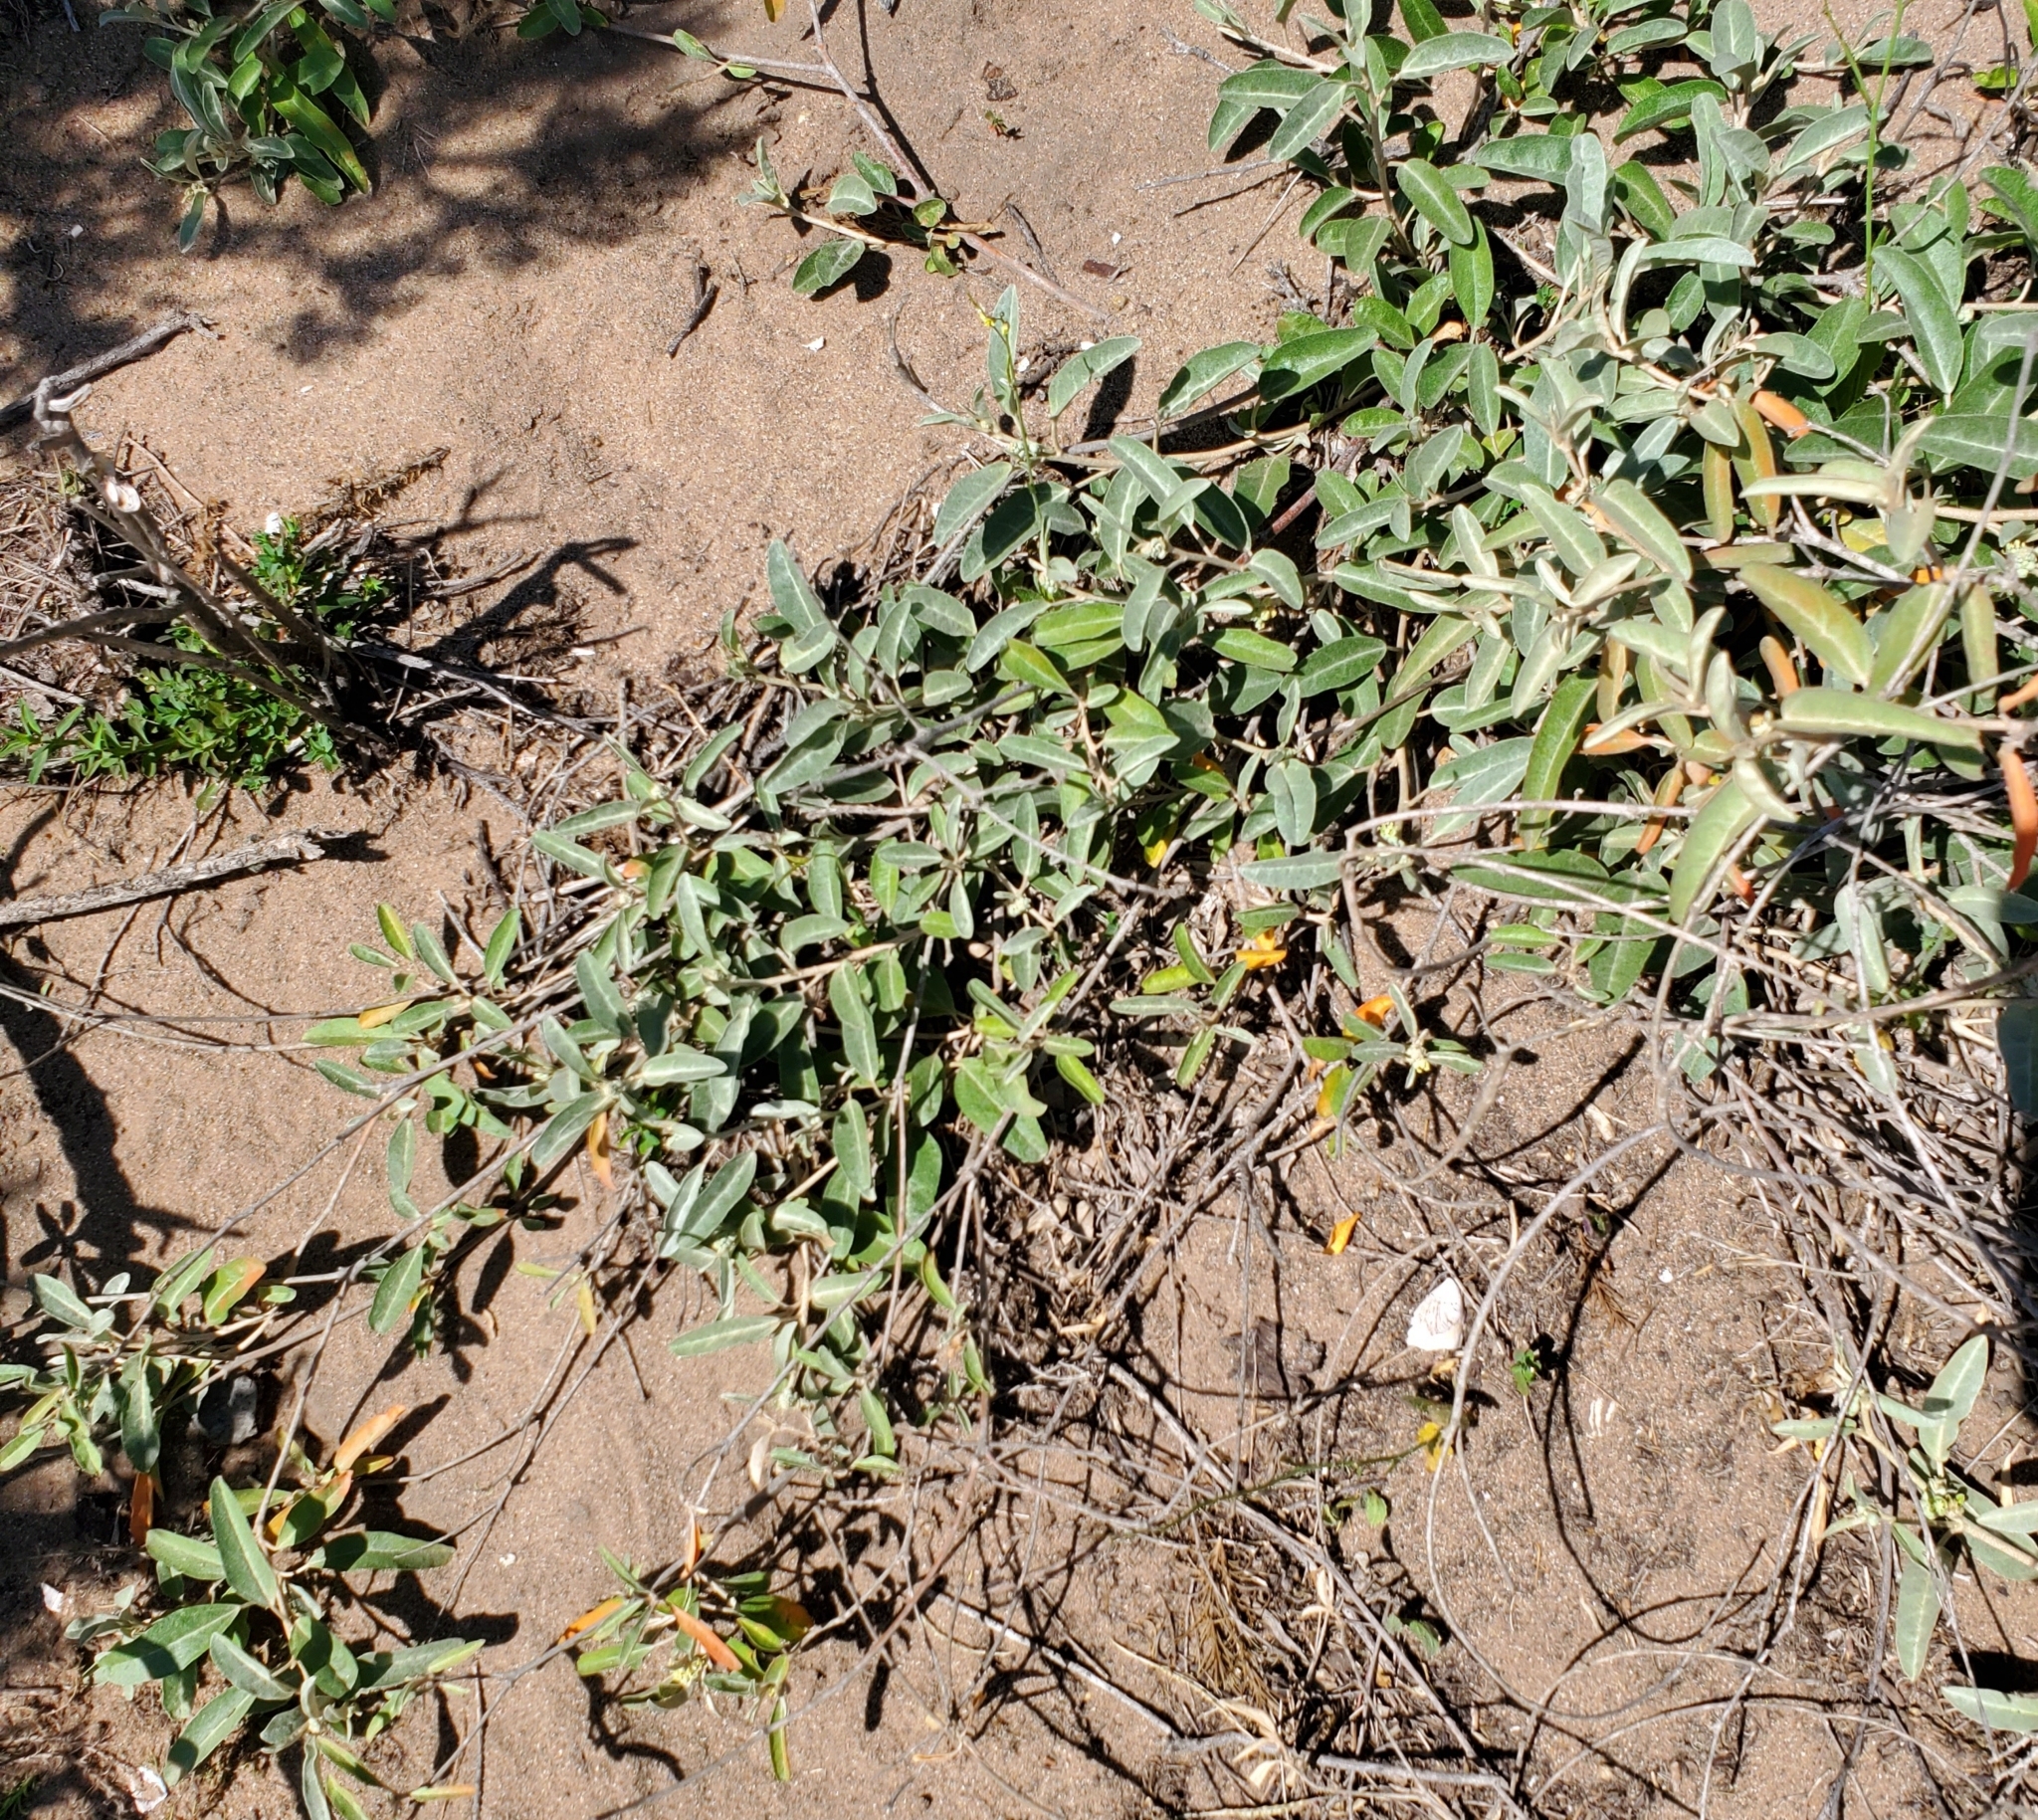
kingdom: Plantae
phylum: Tracheophyta
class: Magnoliopsida
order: Malpighiales
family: Euphorbiaceae
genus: Croton
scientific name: Croton californicus
